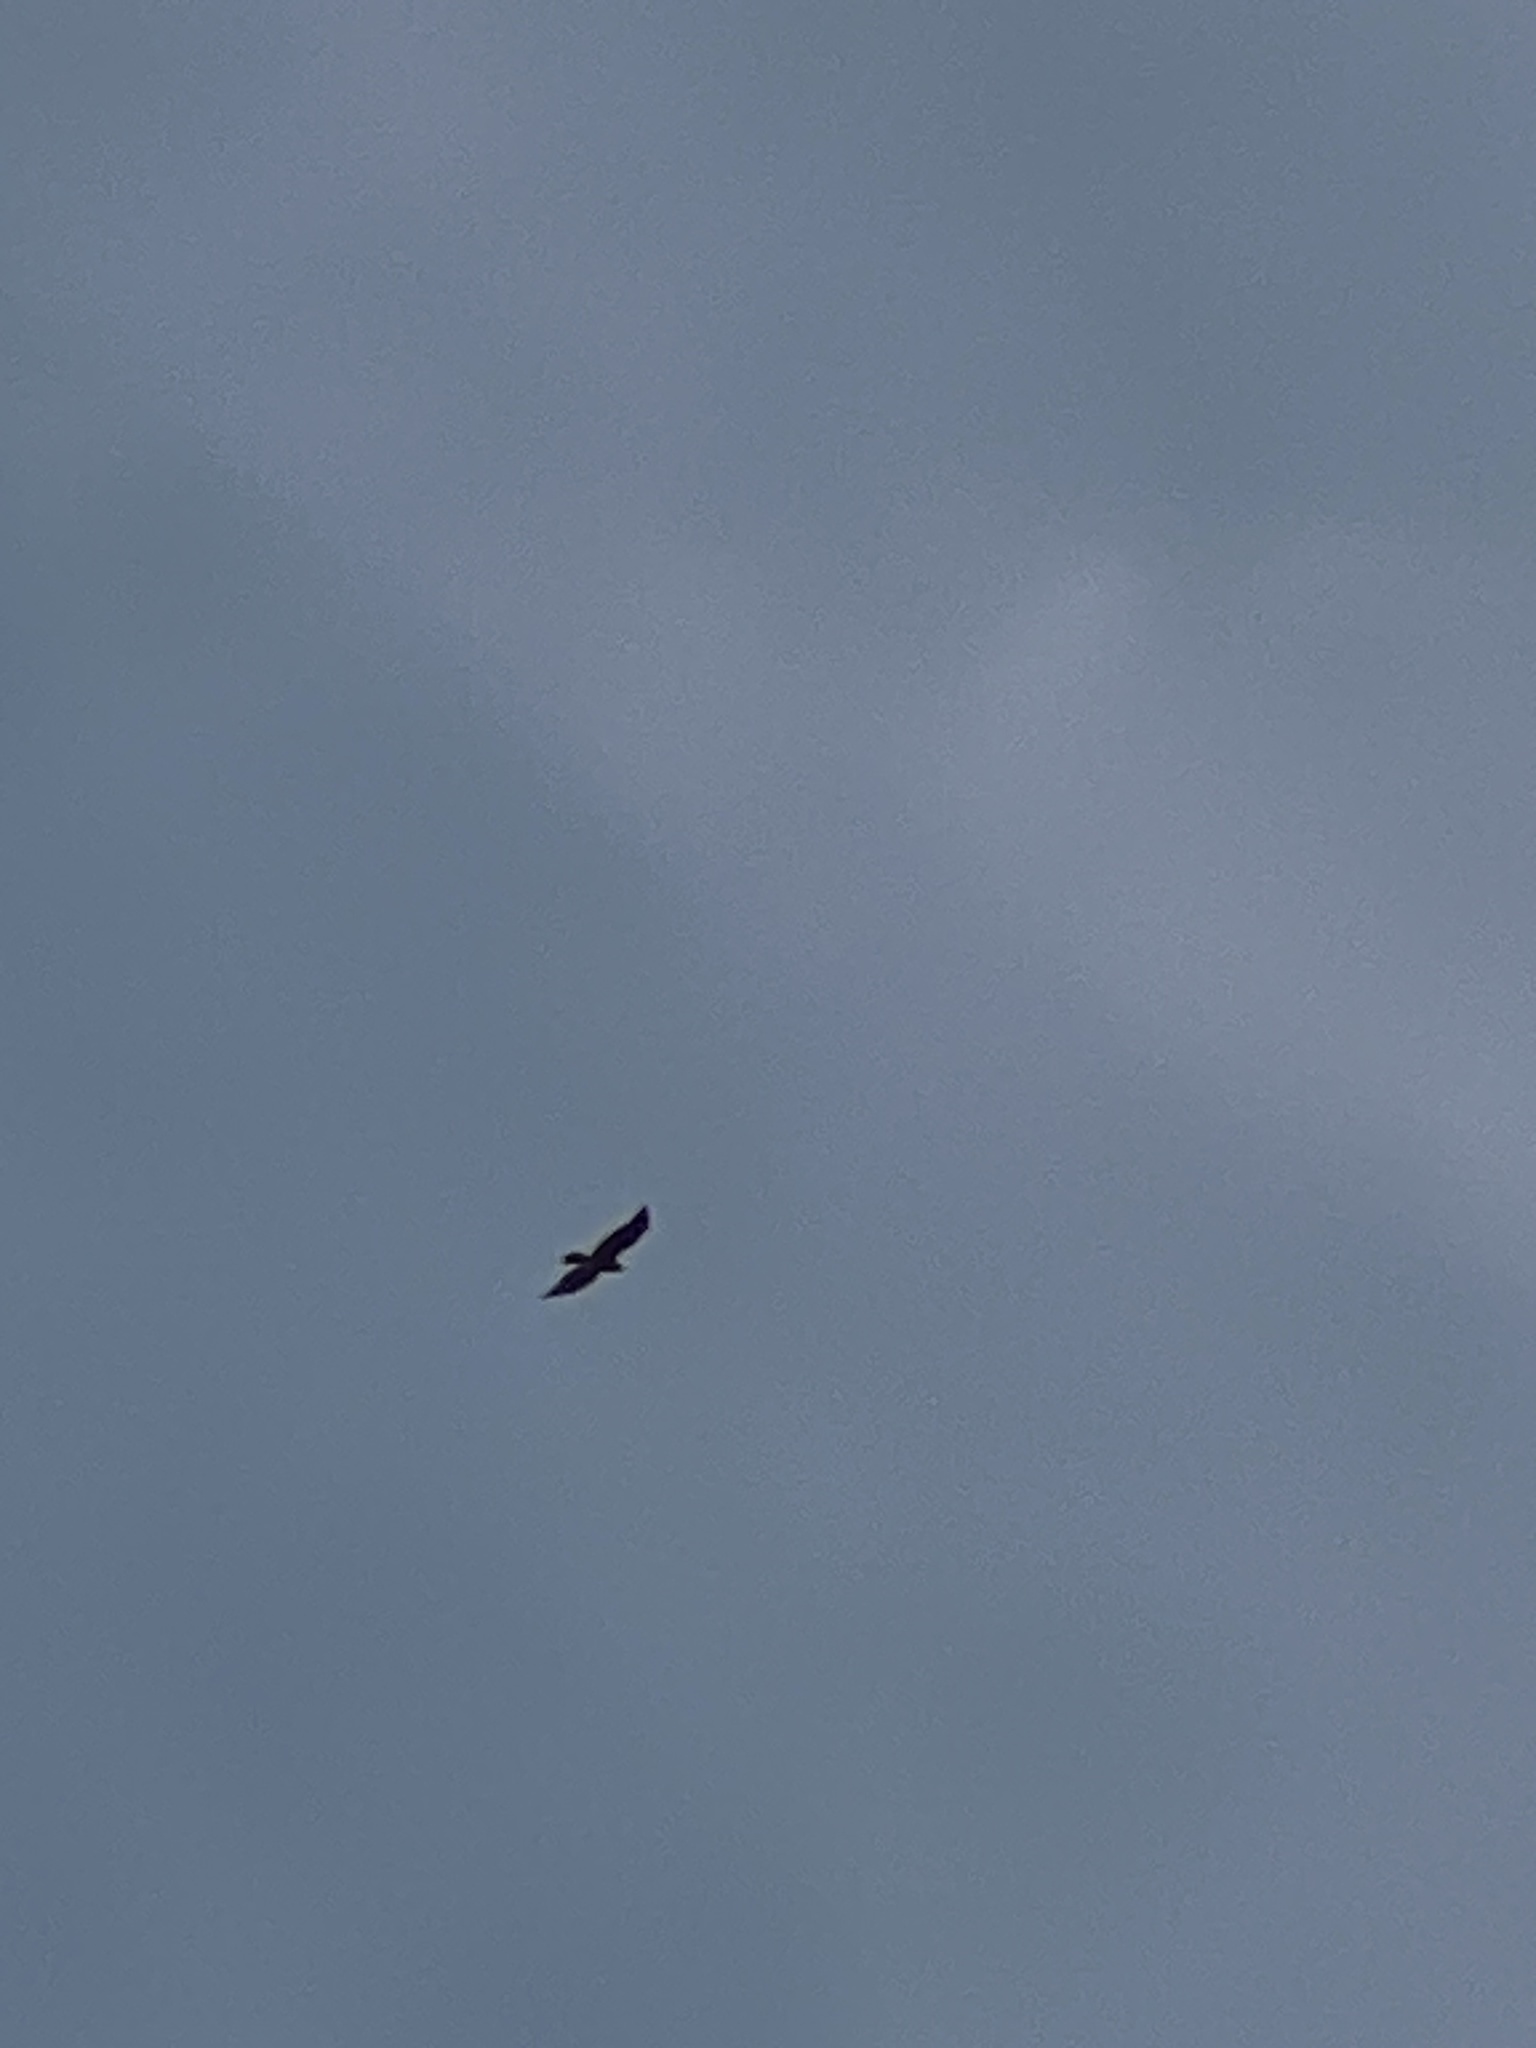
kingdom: Animalia
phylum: Chordata
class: Aves
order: Accipitriformes
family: Accipitridae
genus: Buteo
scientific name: Buteo jamaicensis
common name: Red-tailed hawk
